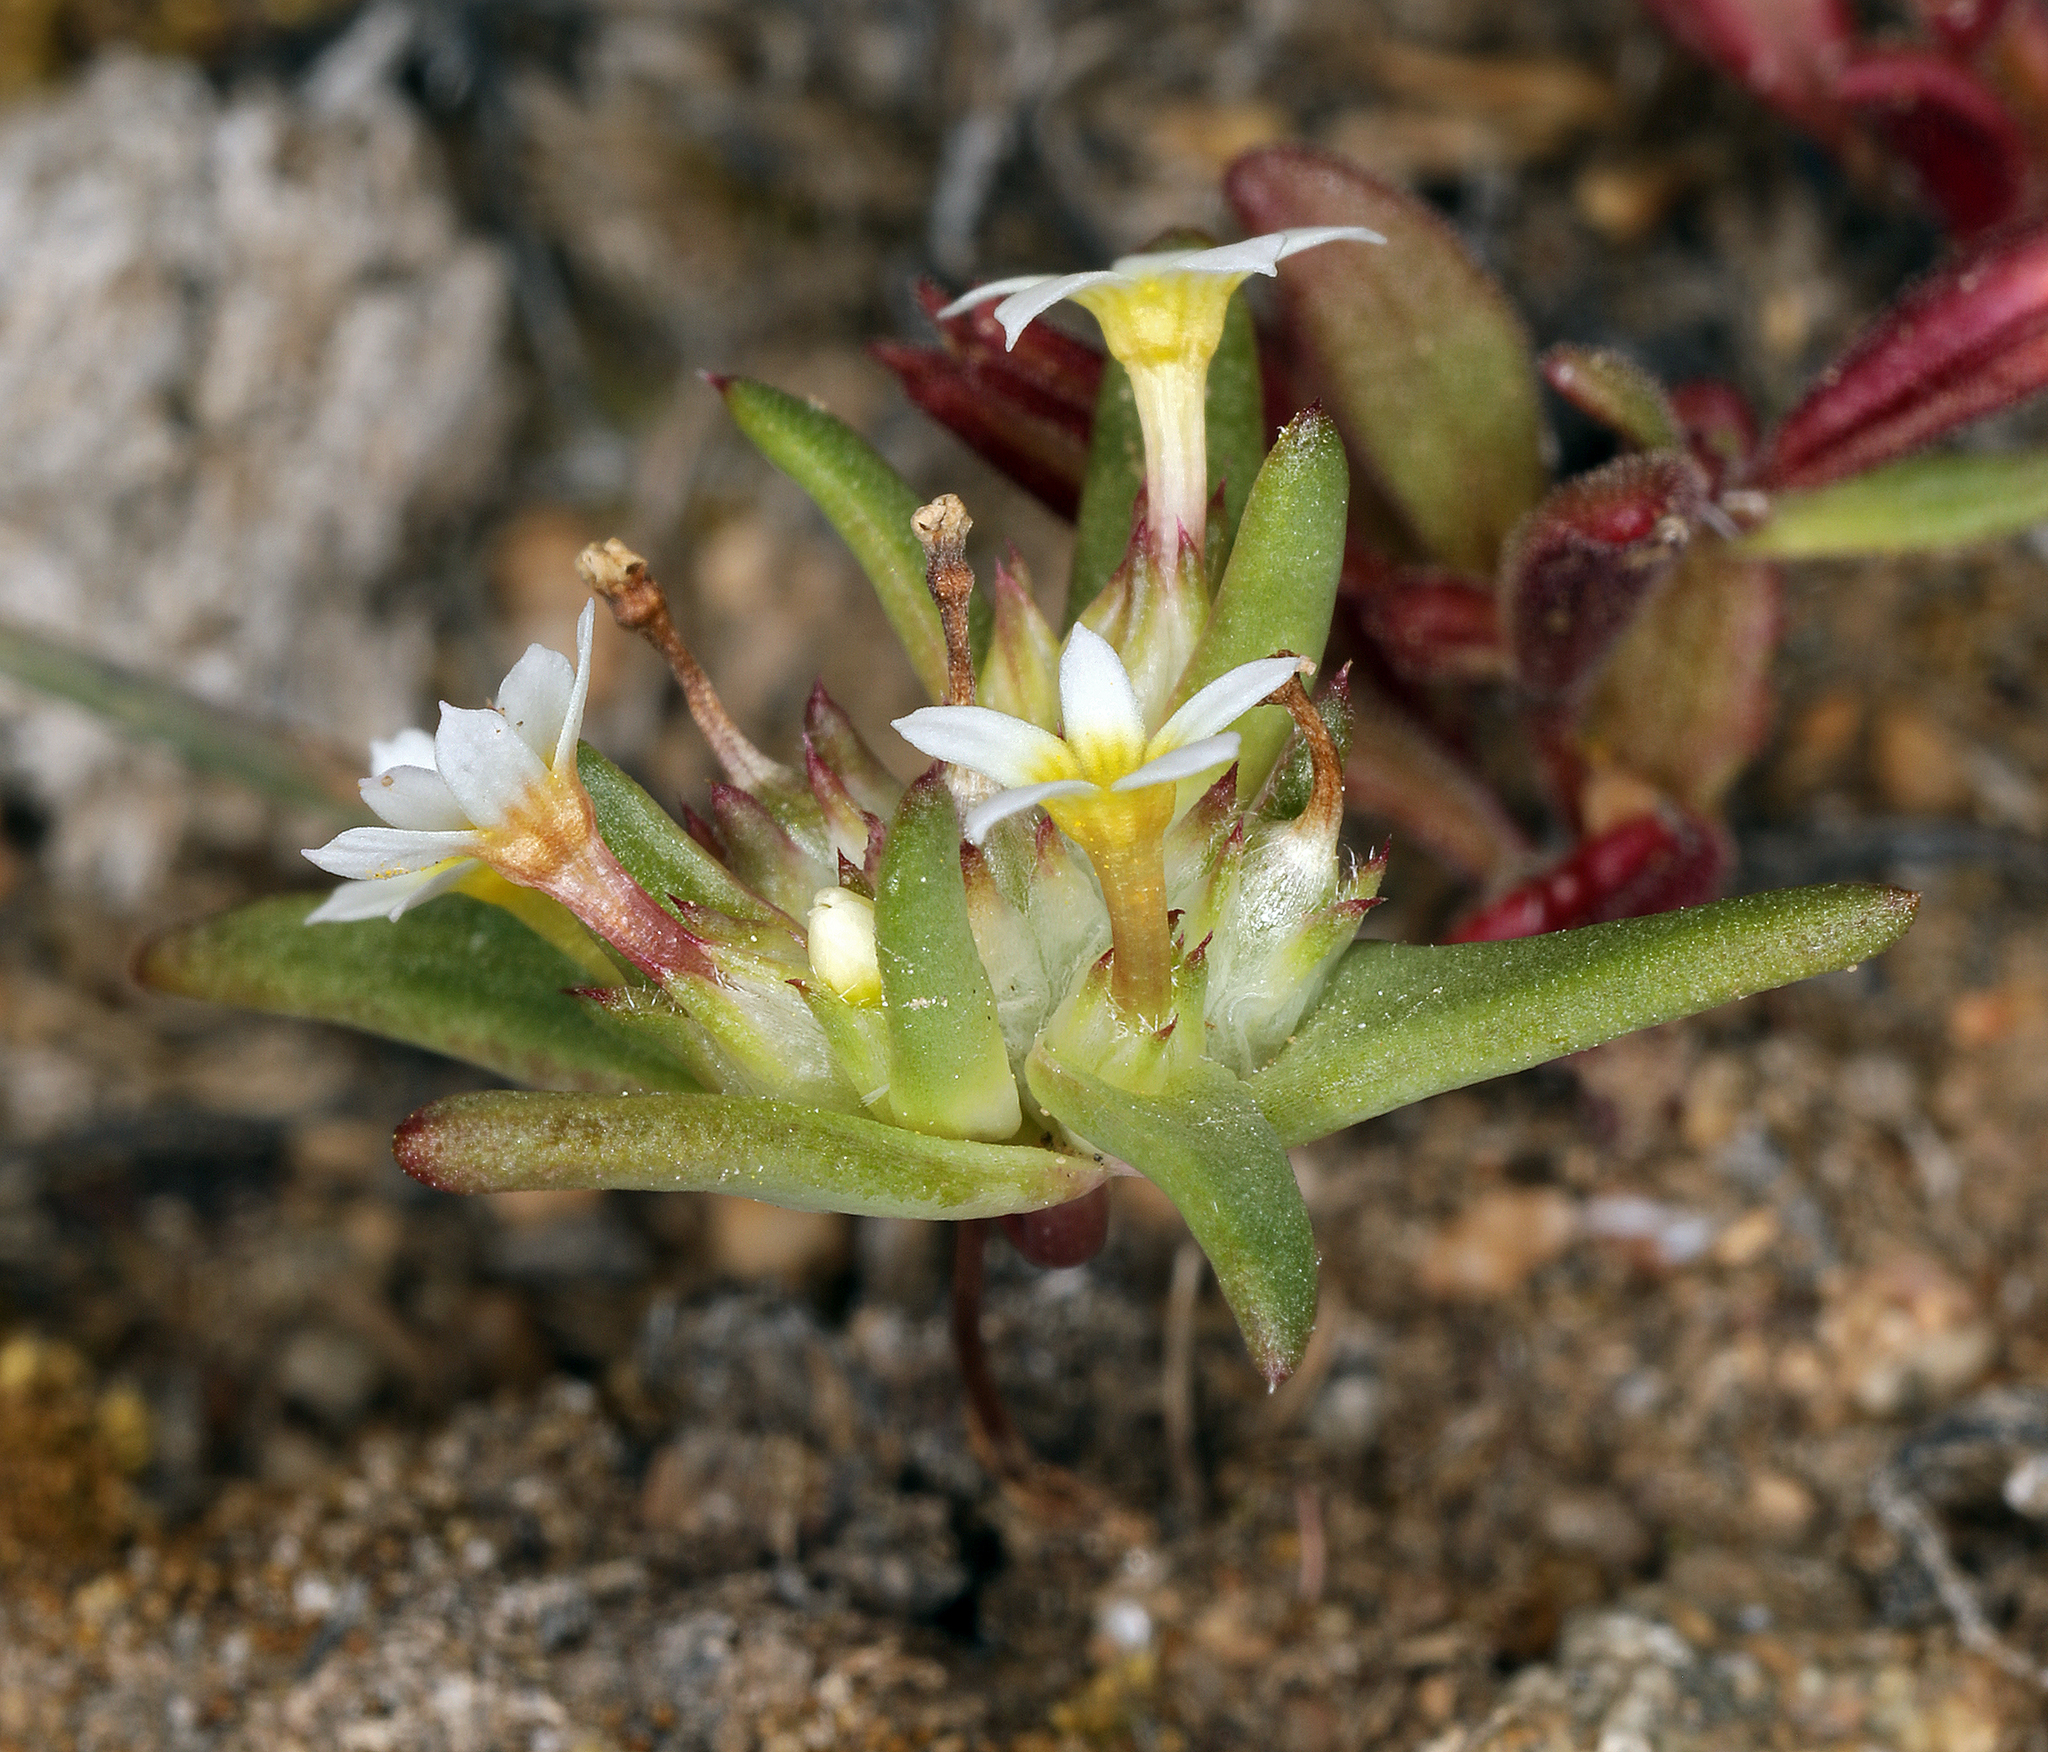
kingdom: Plantae
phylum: Tracheophyta
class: Magnoliopsida
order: Ericales
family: Polemoniaceae
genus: Gymnosteris
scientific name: Gymnosteris parvula
